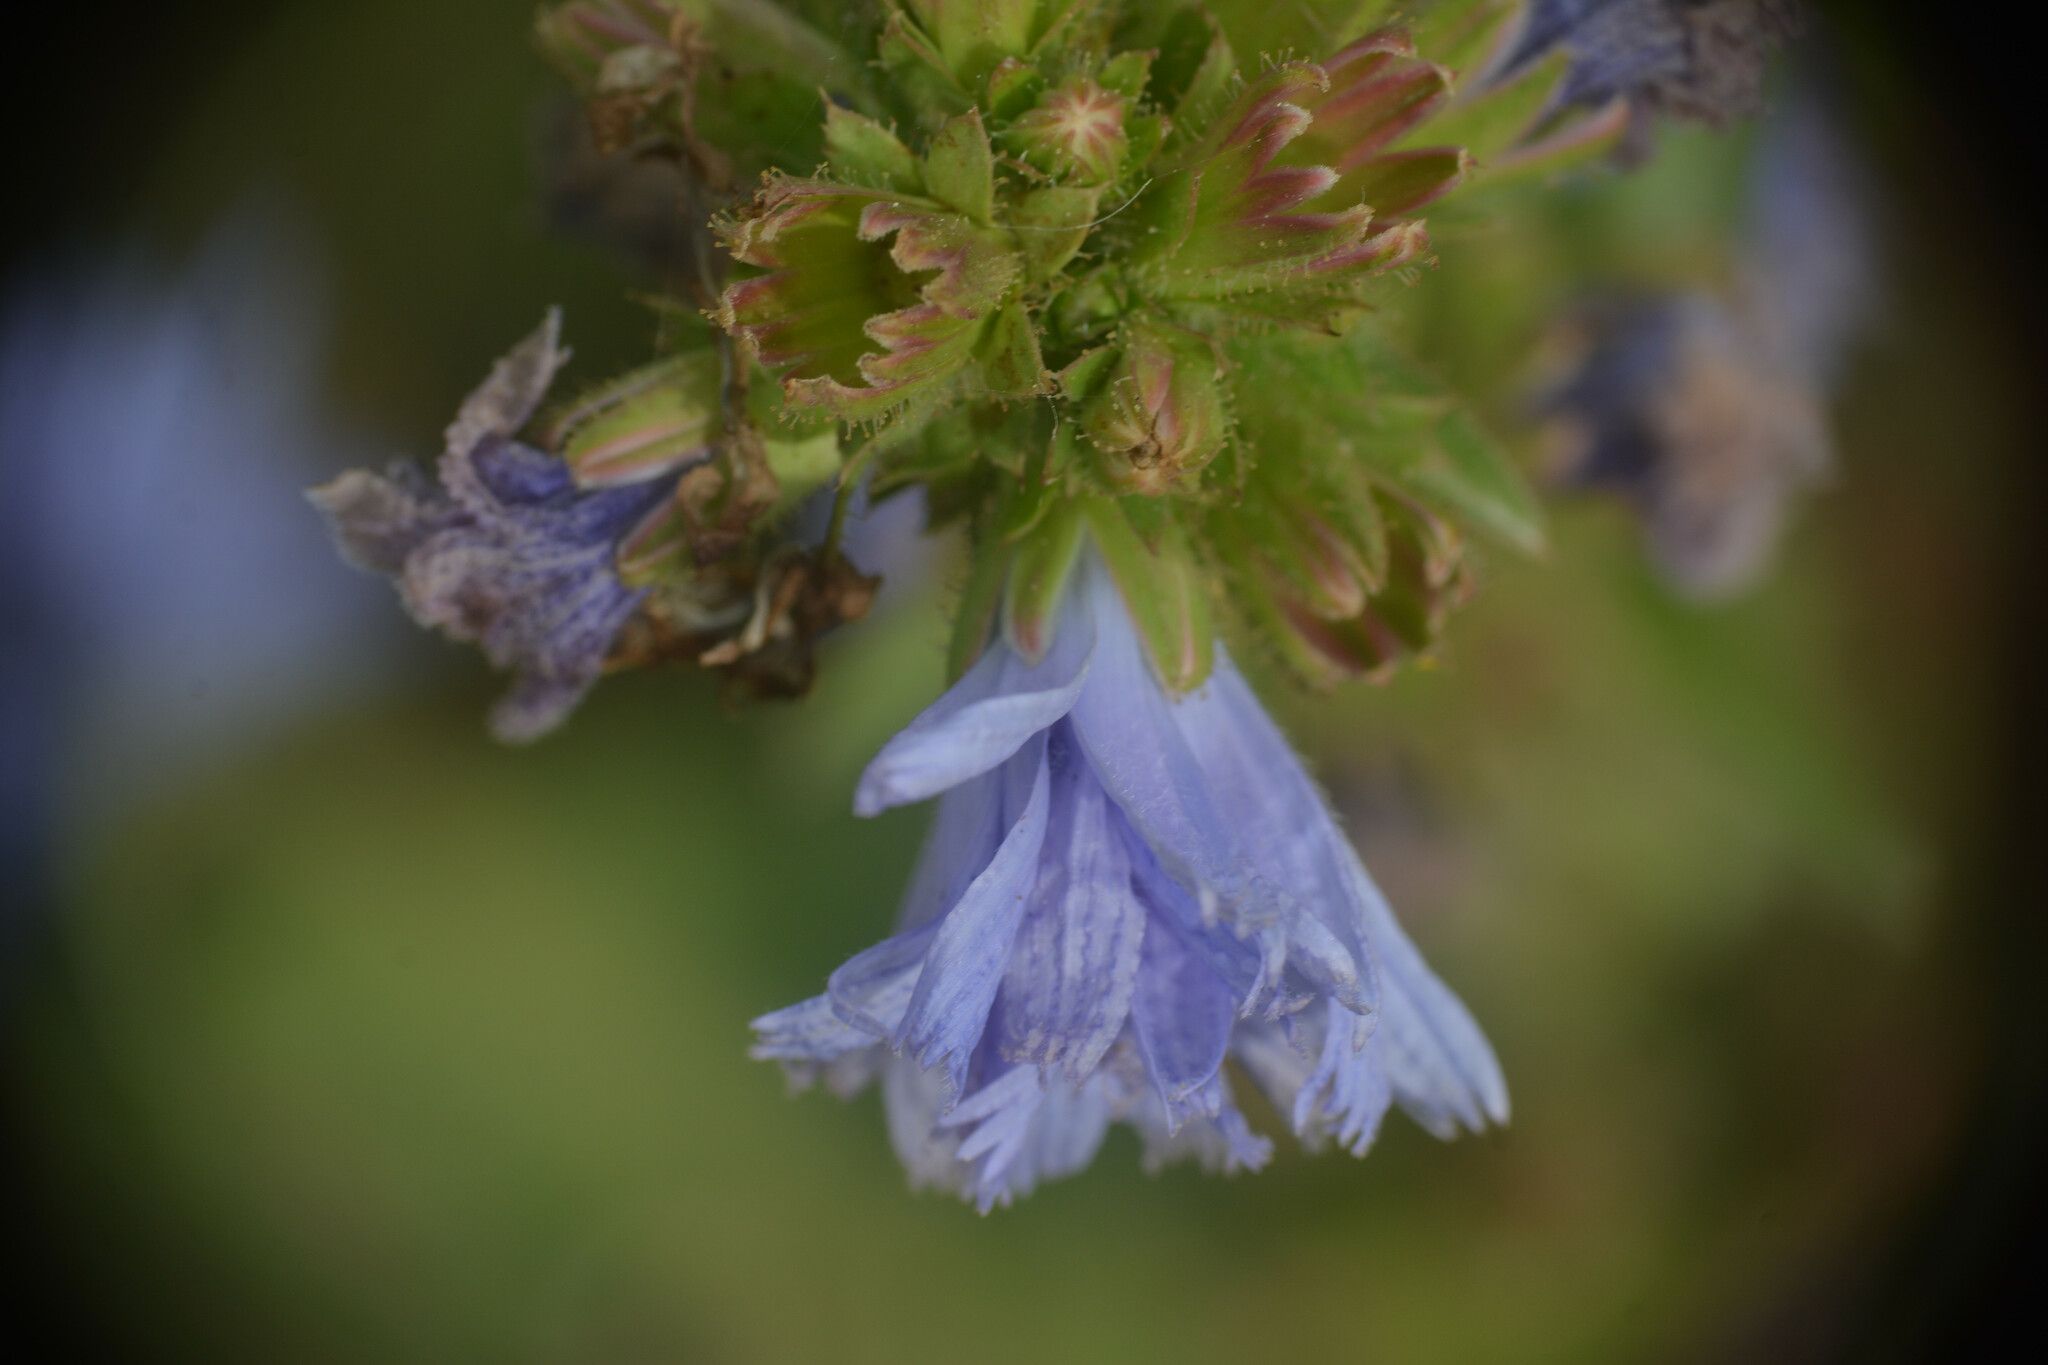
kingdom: Plantae
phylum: Tracheophyta
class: Magnoliopsida
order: Asterales
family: Asteraceae
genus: Cichorium
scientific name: Cichorium intybus
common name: Chicory
